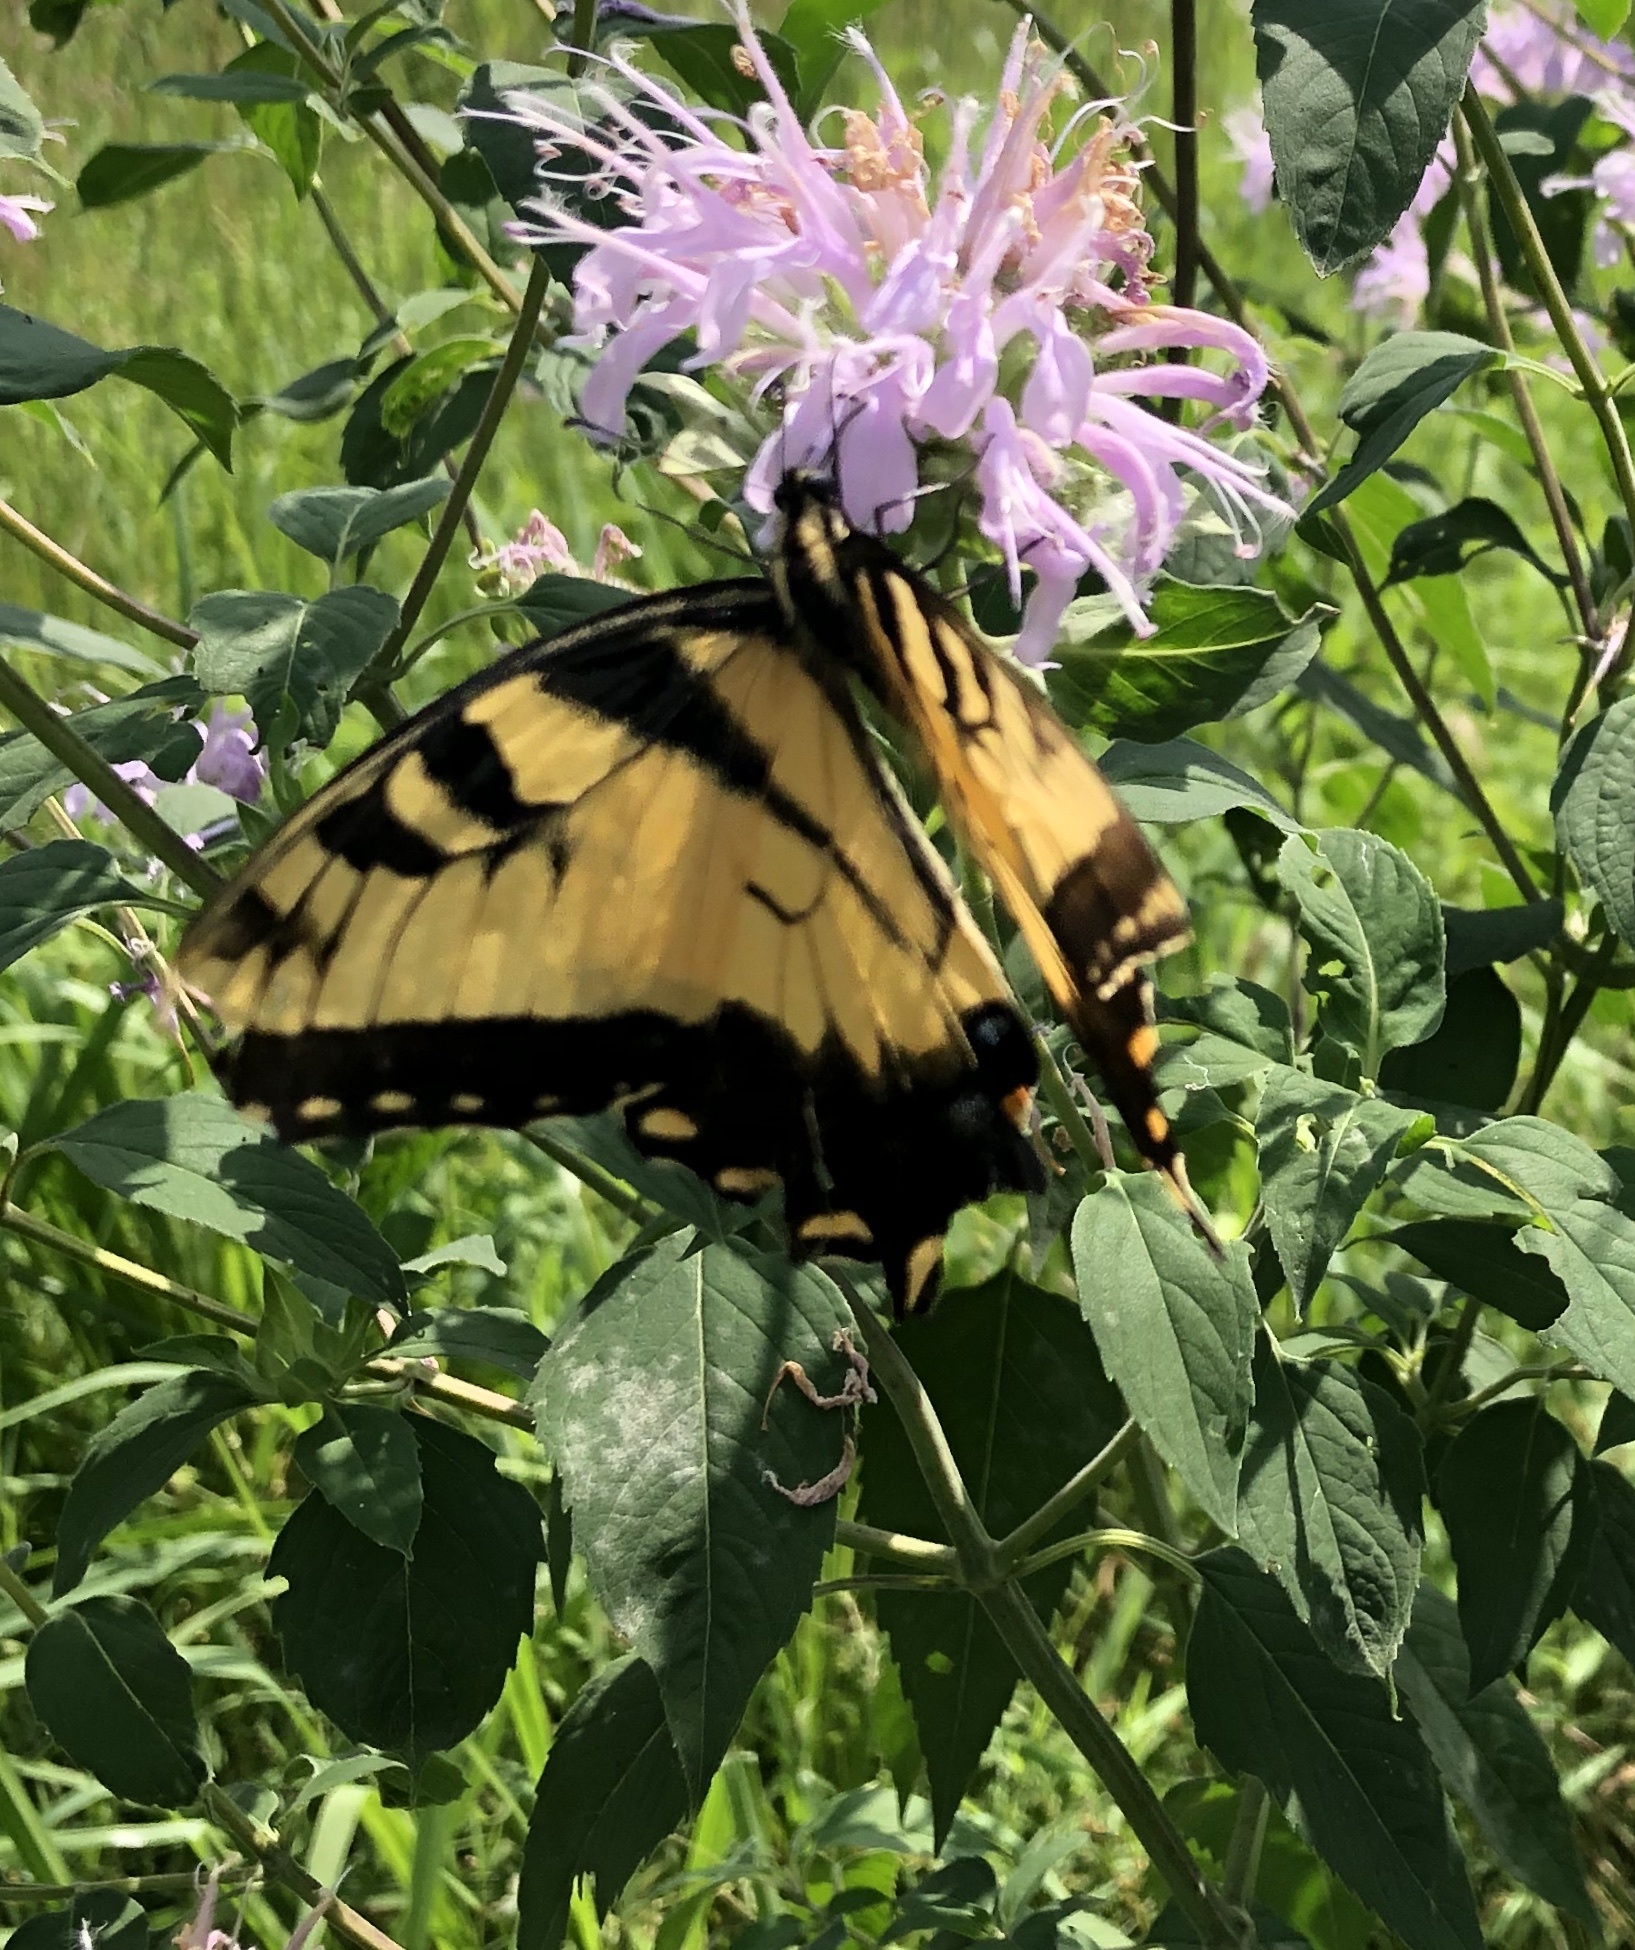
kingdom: Animalia
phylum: Arthropoda
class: Insecta
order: Lepidoptera
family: Papilionidae
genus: Papilio
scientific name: Papilio glaucus
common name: Tiger swallowtail
